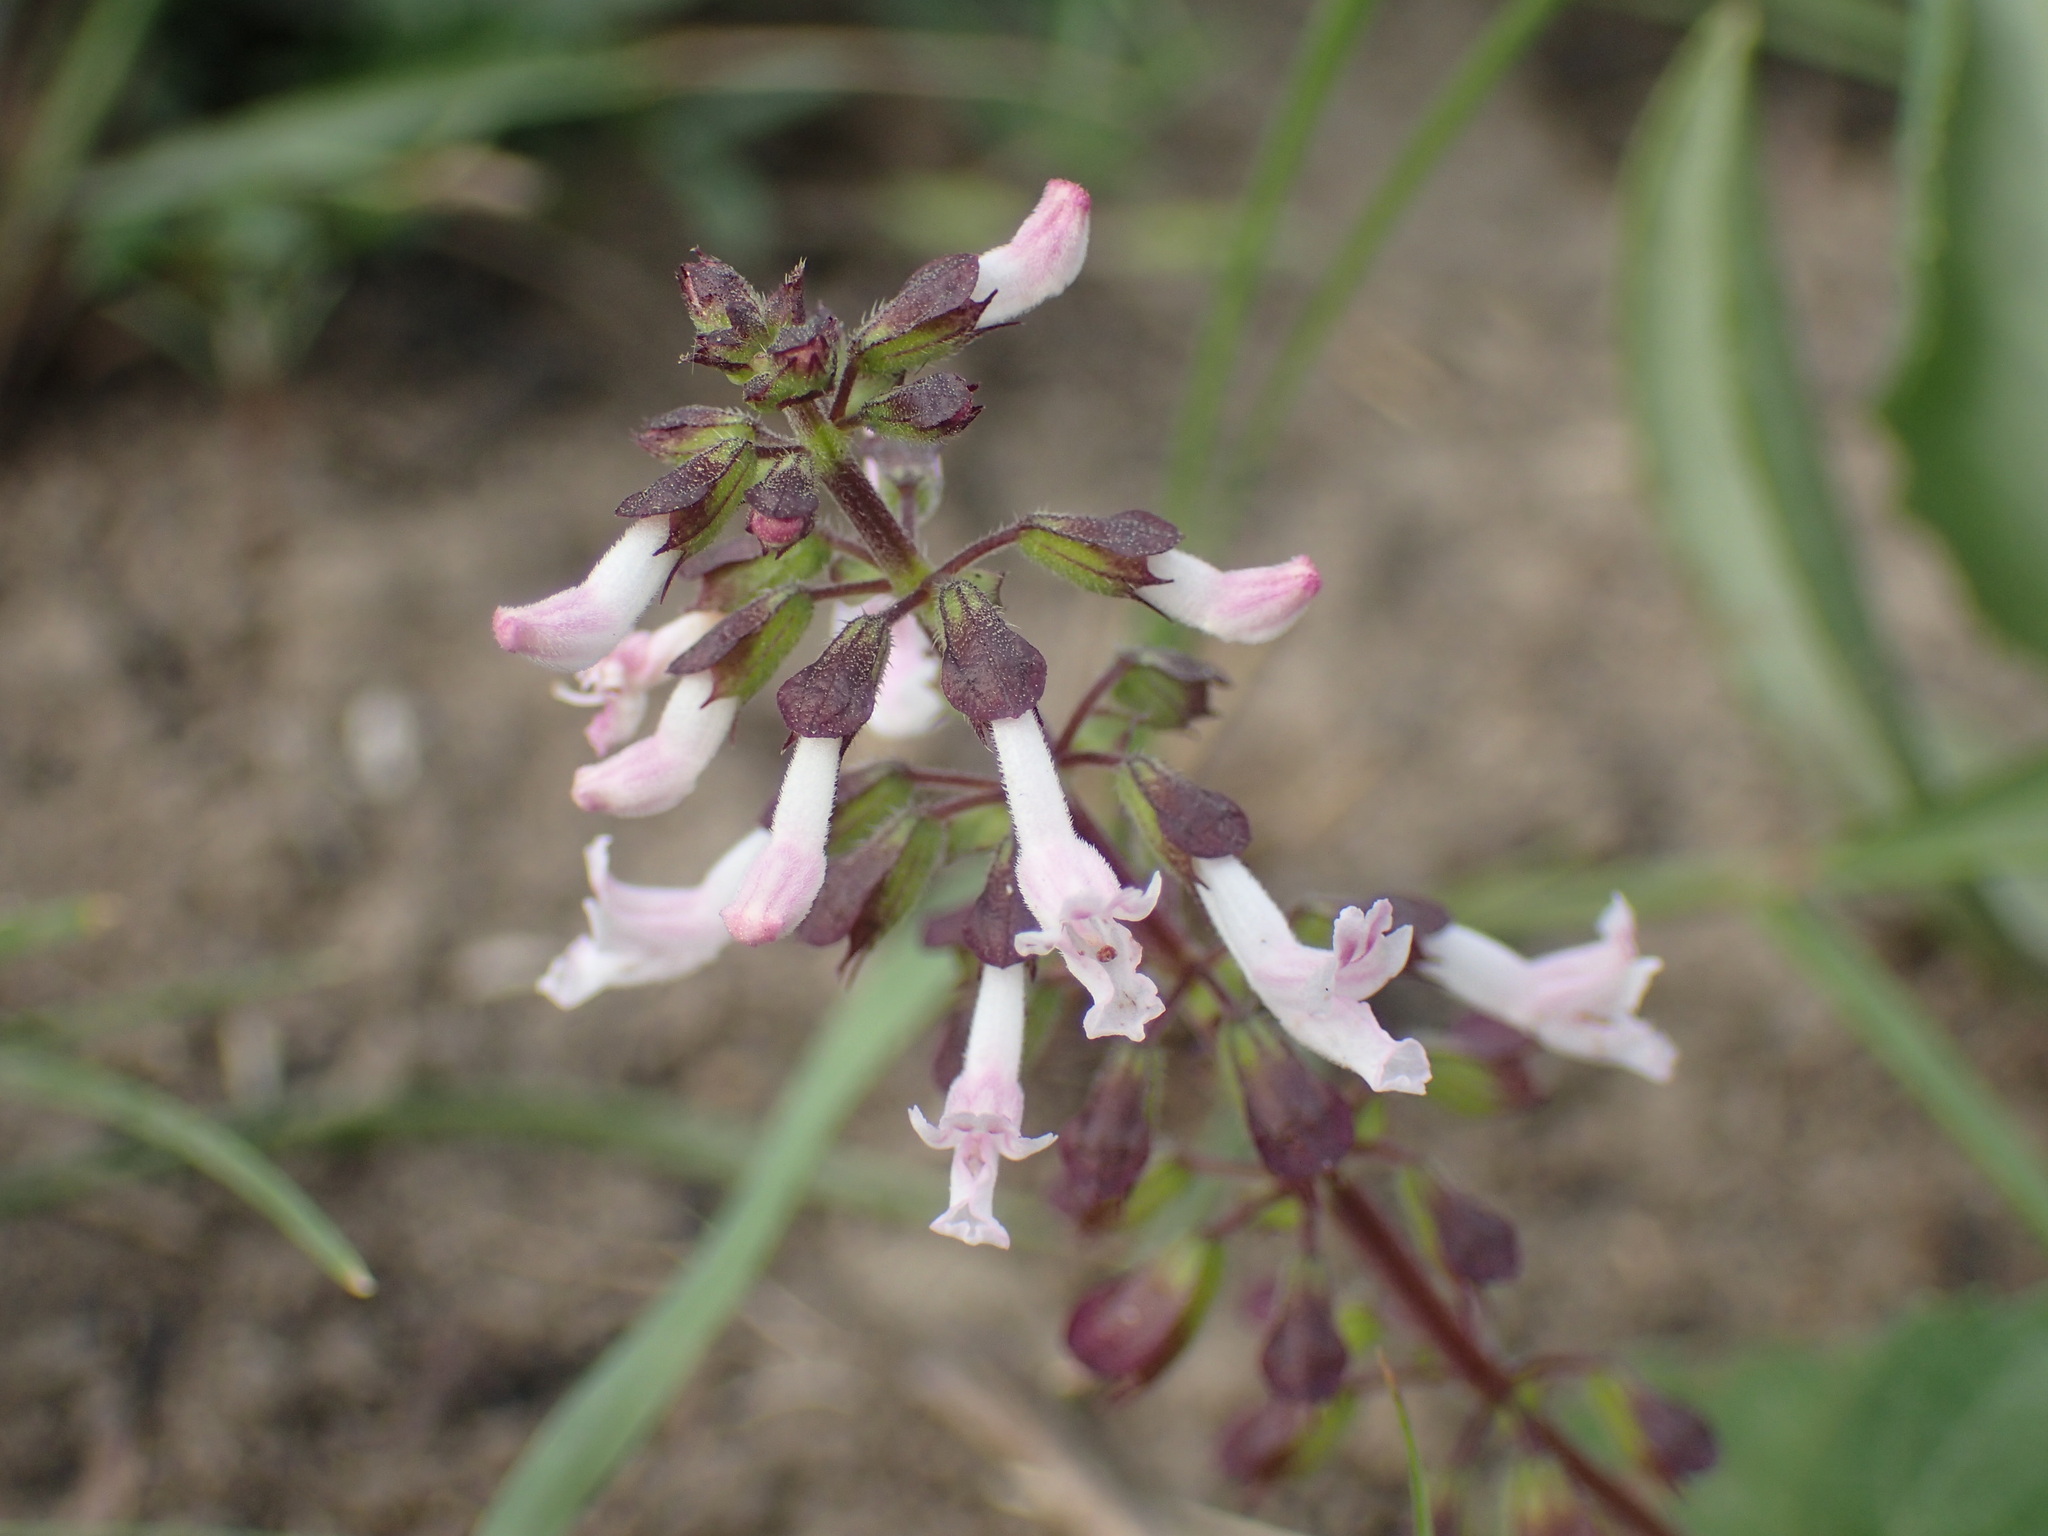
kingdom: Plantae
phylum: Tracheophyta
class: Magnoliopsida
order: Lamiales
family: Lamiaceae
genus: Orthosiphon
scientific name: Orthosiphon thymiflorus
